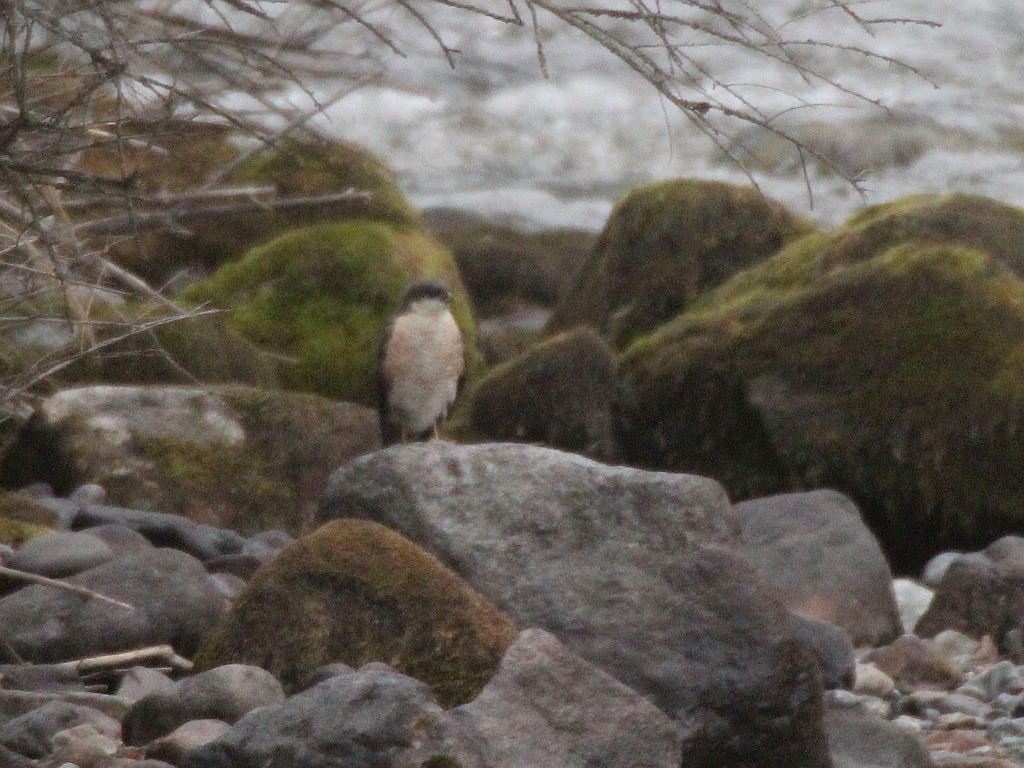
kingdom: Animalia
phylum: Chordata
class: Aves
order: Accipitriformes
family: Accipitridae
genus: Accipiter
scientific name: Accipiter nisus
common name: Eurasian sparrowhawk
